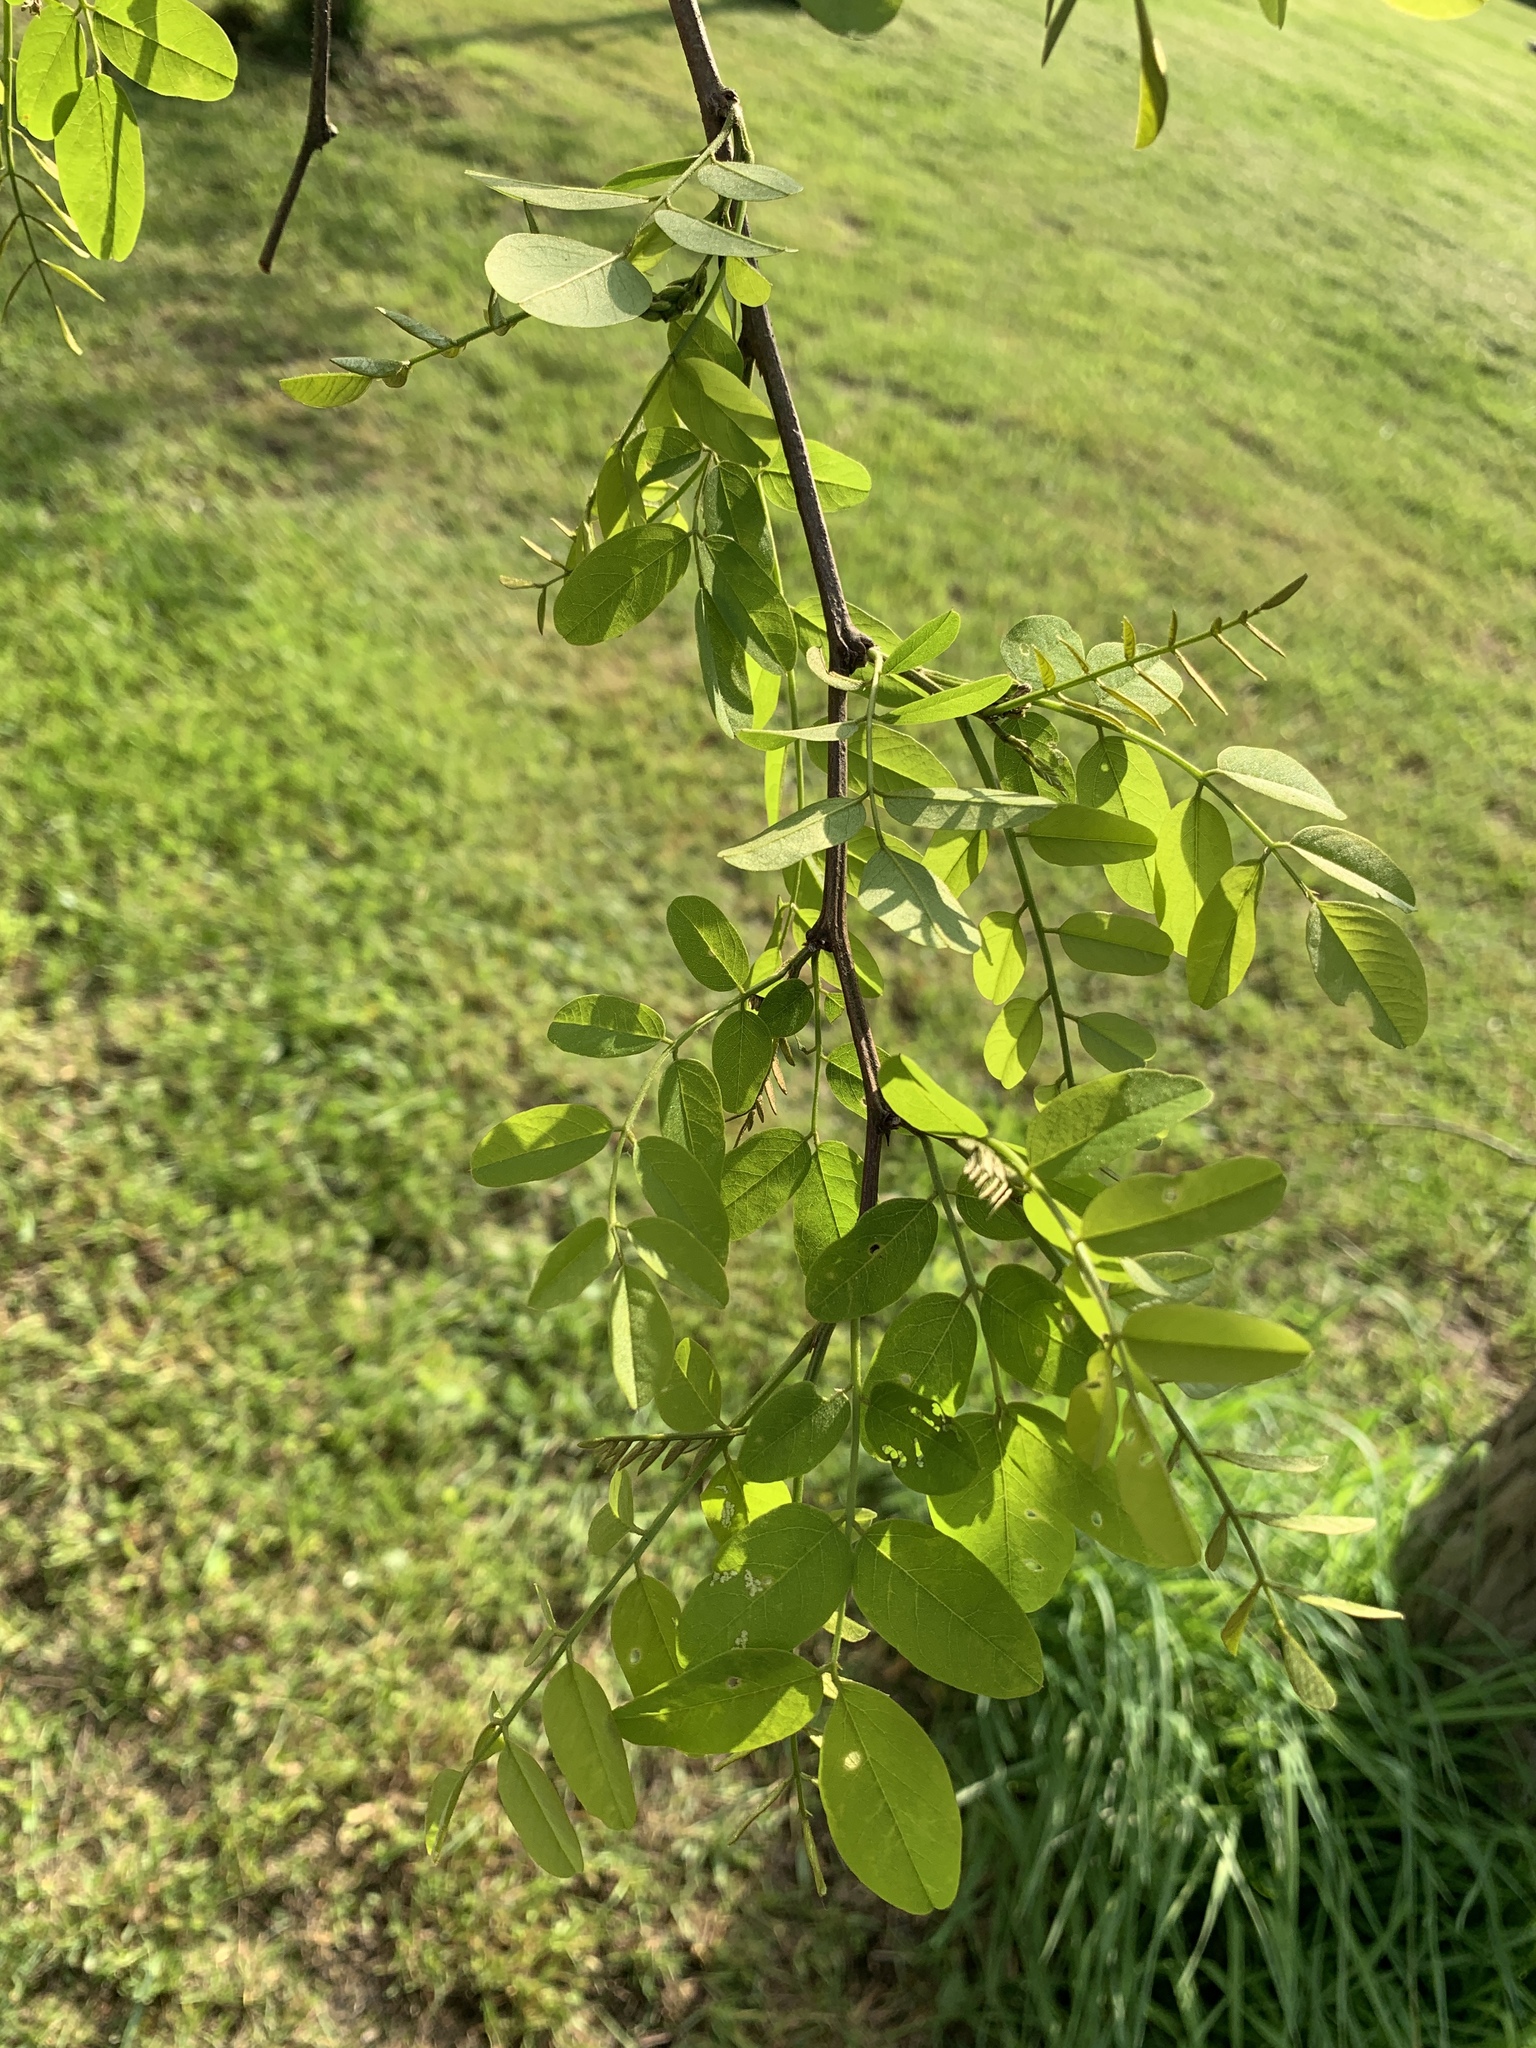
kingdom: Plantae
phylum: Tracheophyta
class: Magnoliopsida
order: Fabales
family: Fabaceae
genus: Robinia
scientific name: Robinia pseudoacacia
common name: Black locust
